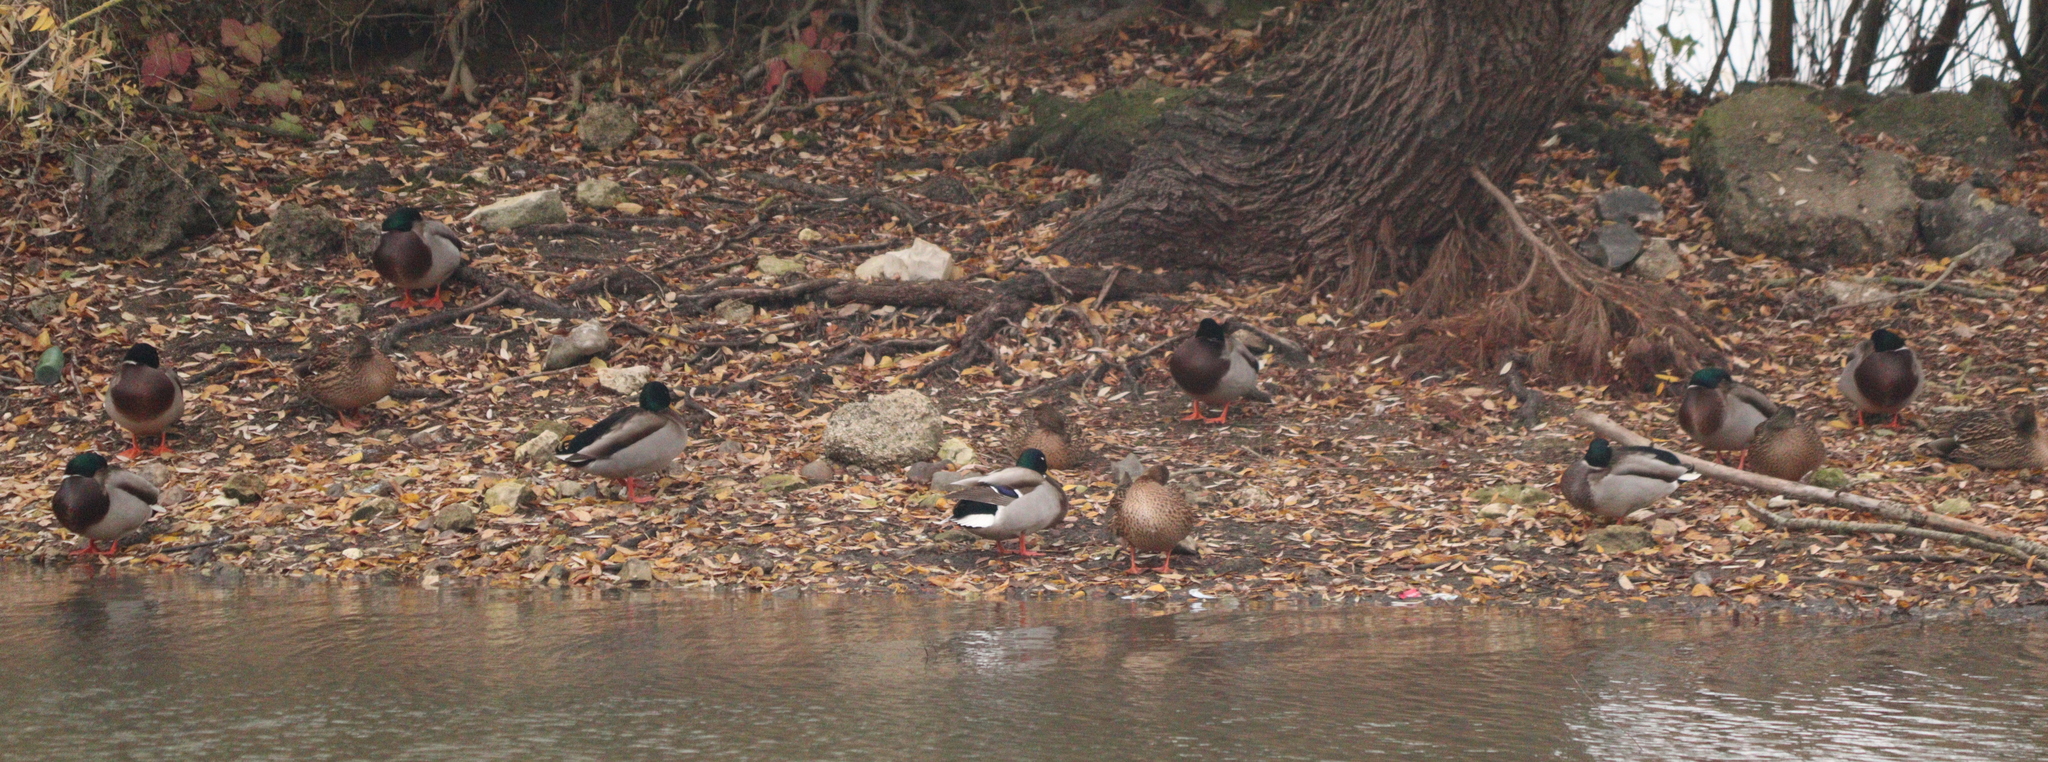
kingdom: Animalia
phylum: Chordata
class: Aves
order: Anseriformes
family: Anatidae
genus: Anas
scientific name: Anas platyrhynchos
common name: Mallard
